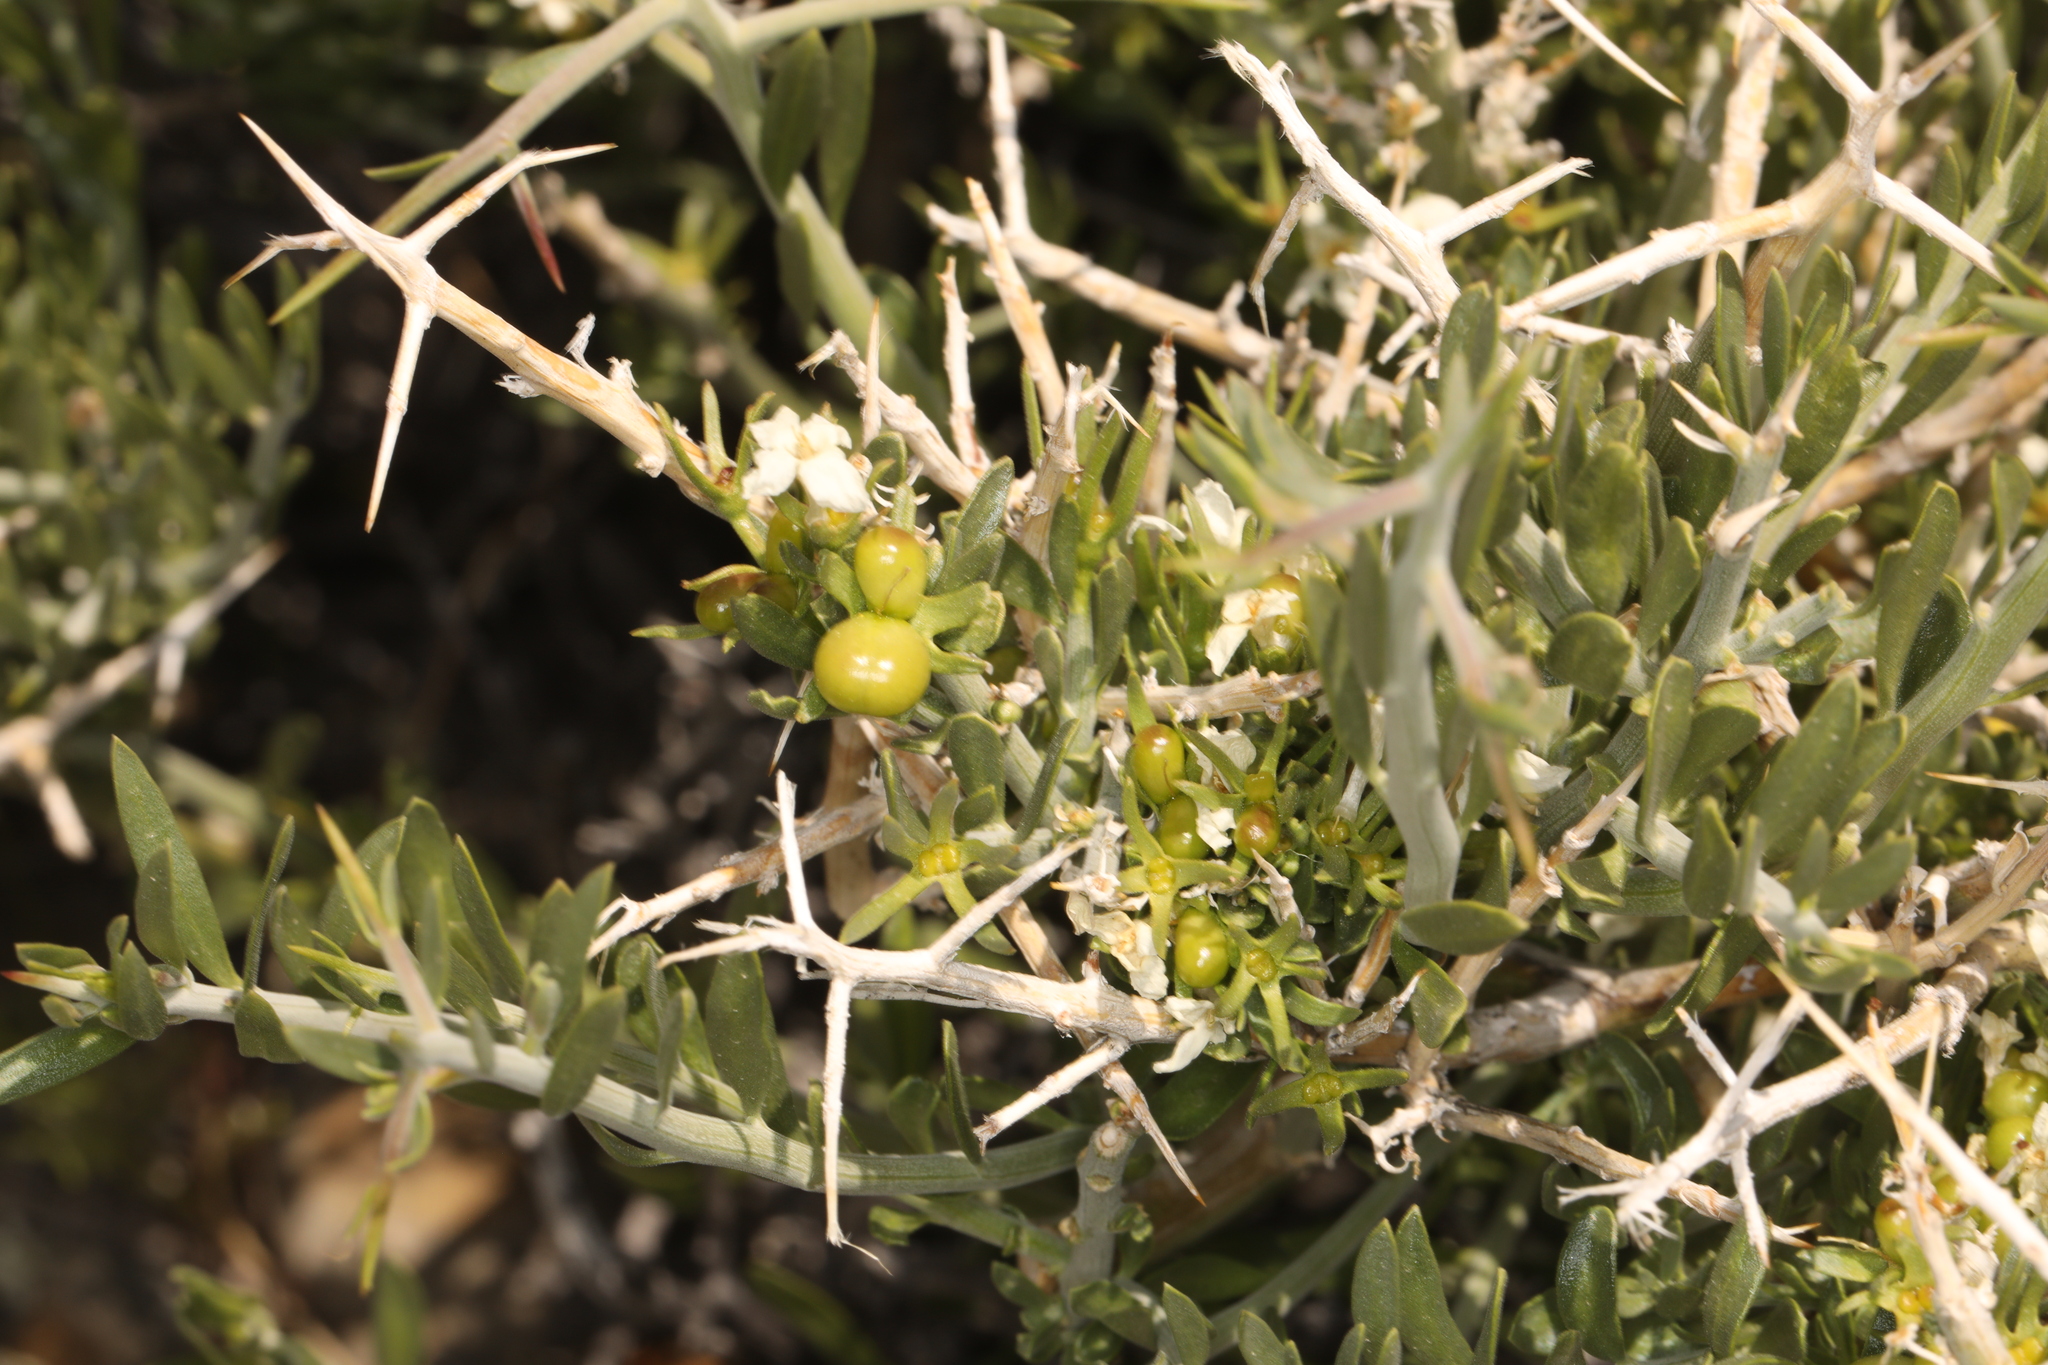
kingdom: Plantae
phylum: Tracheophyta
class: Magnoliopsida
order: Lamiales
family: Oleaceae
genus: Menodora
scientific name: Menodora spinescens
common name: Spiny menodora
